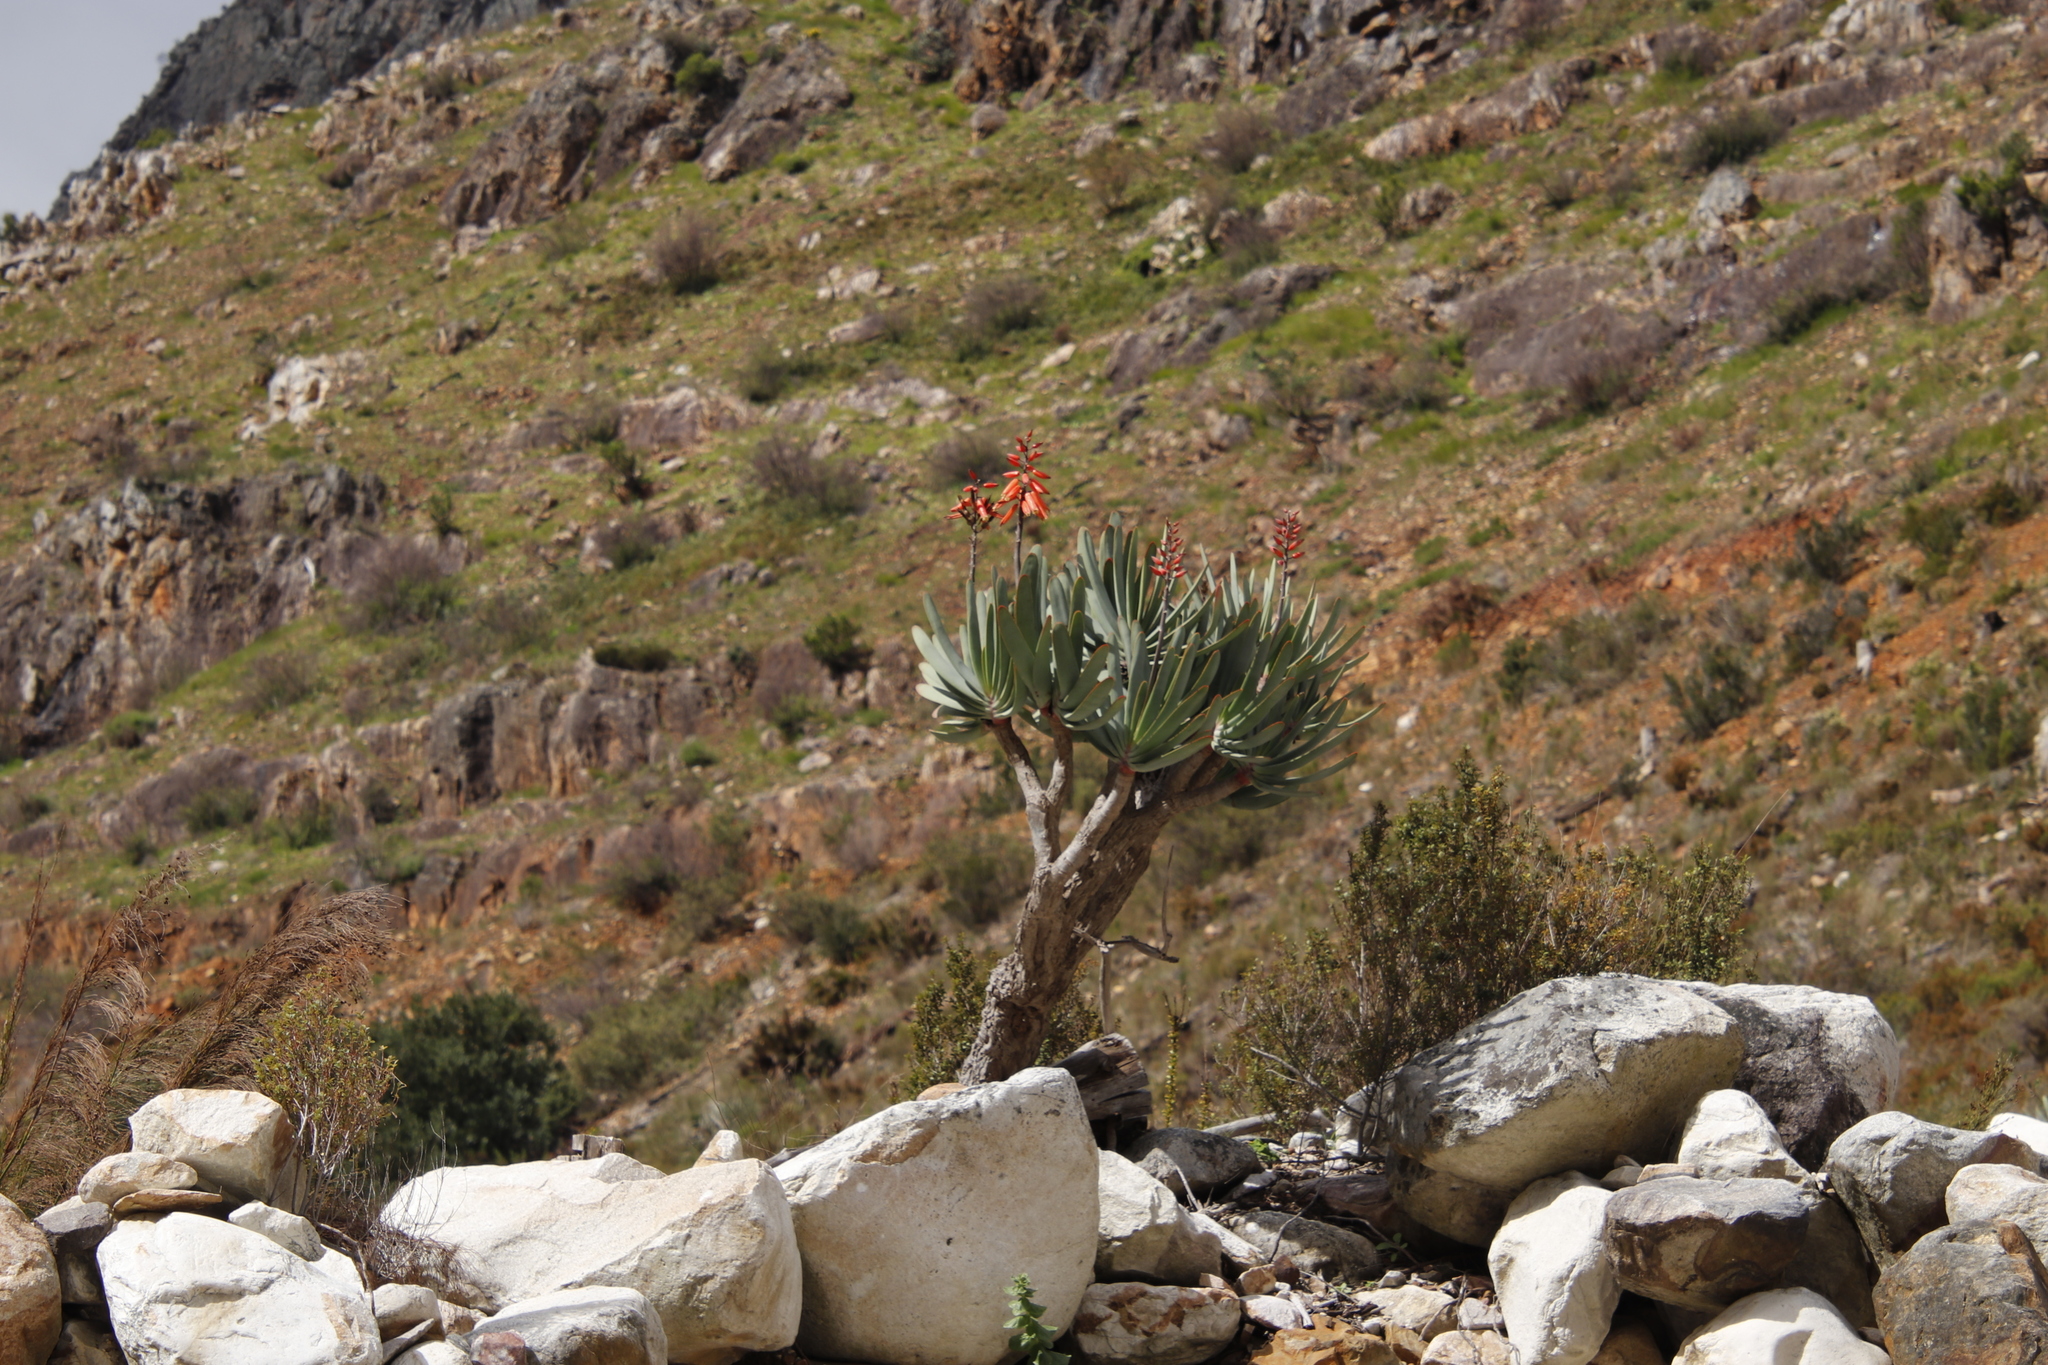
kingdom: Plantae
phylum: Tracheophyta
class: Liliopsida
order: Asparagales
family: Asphodelaceae
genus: Kumara
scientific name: Kumara plicatilis
